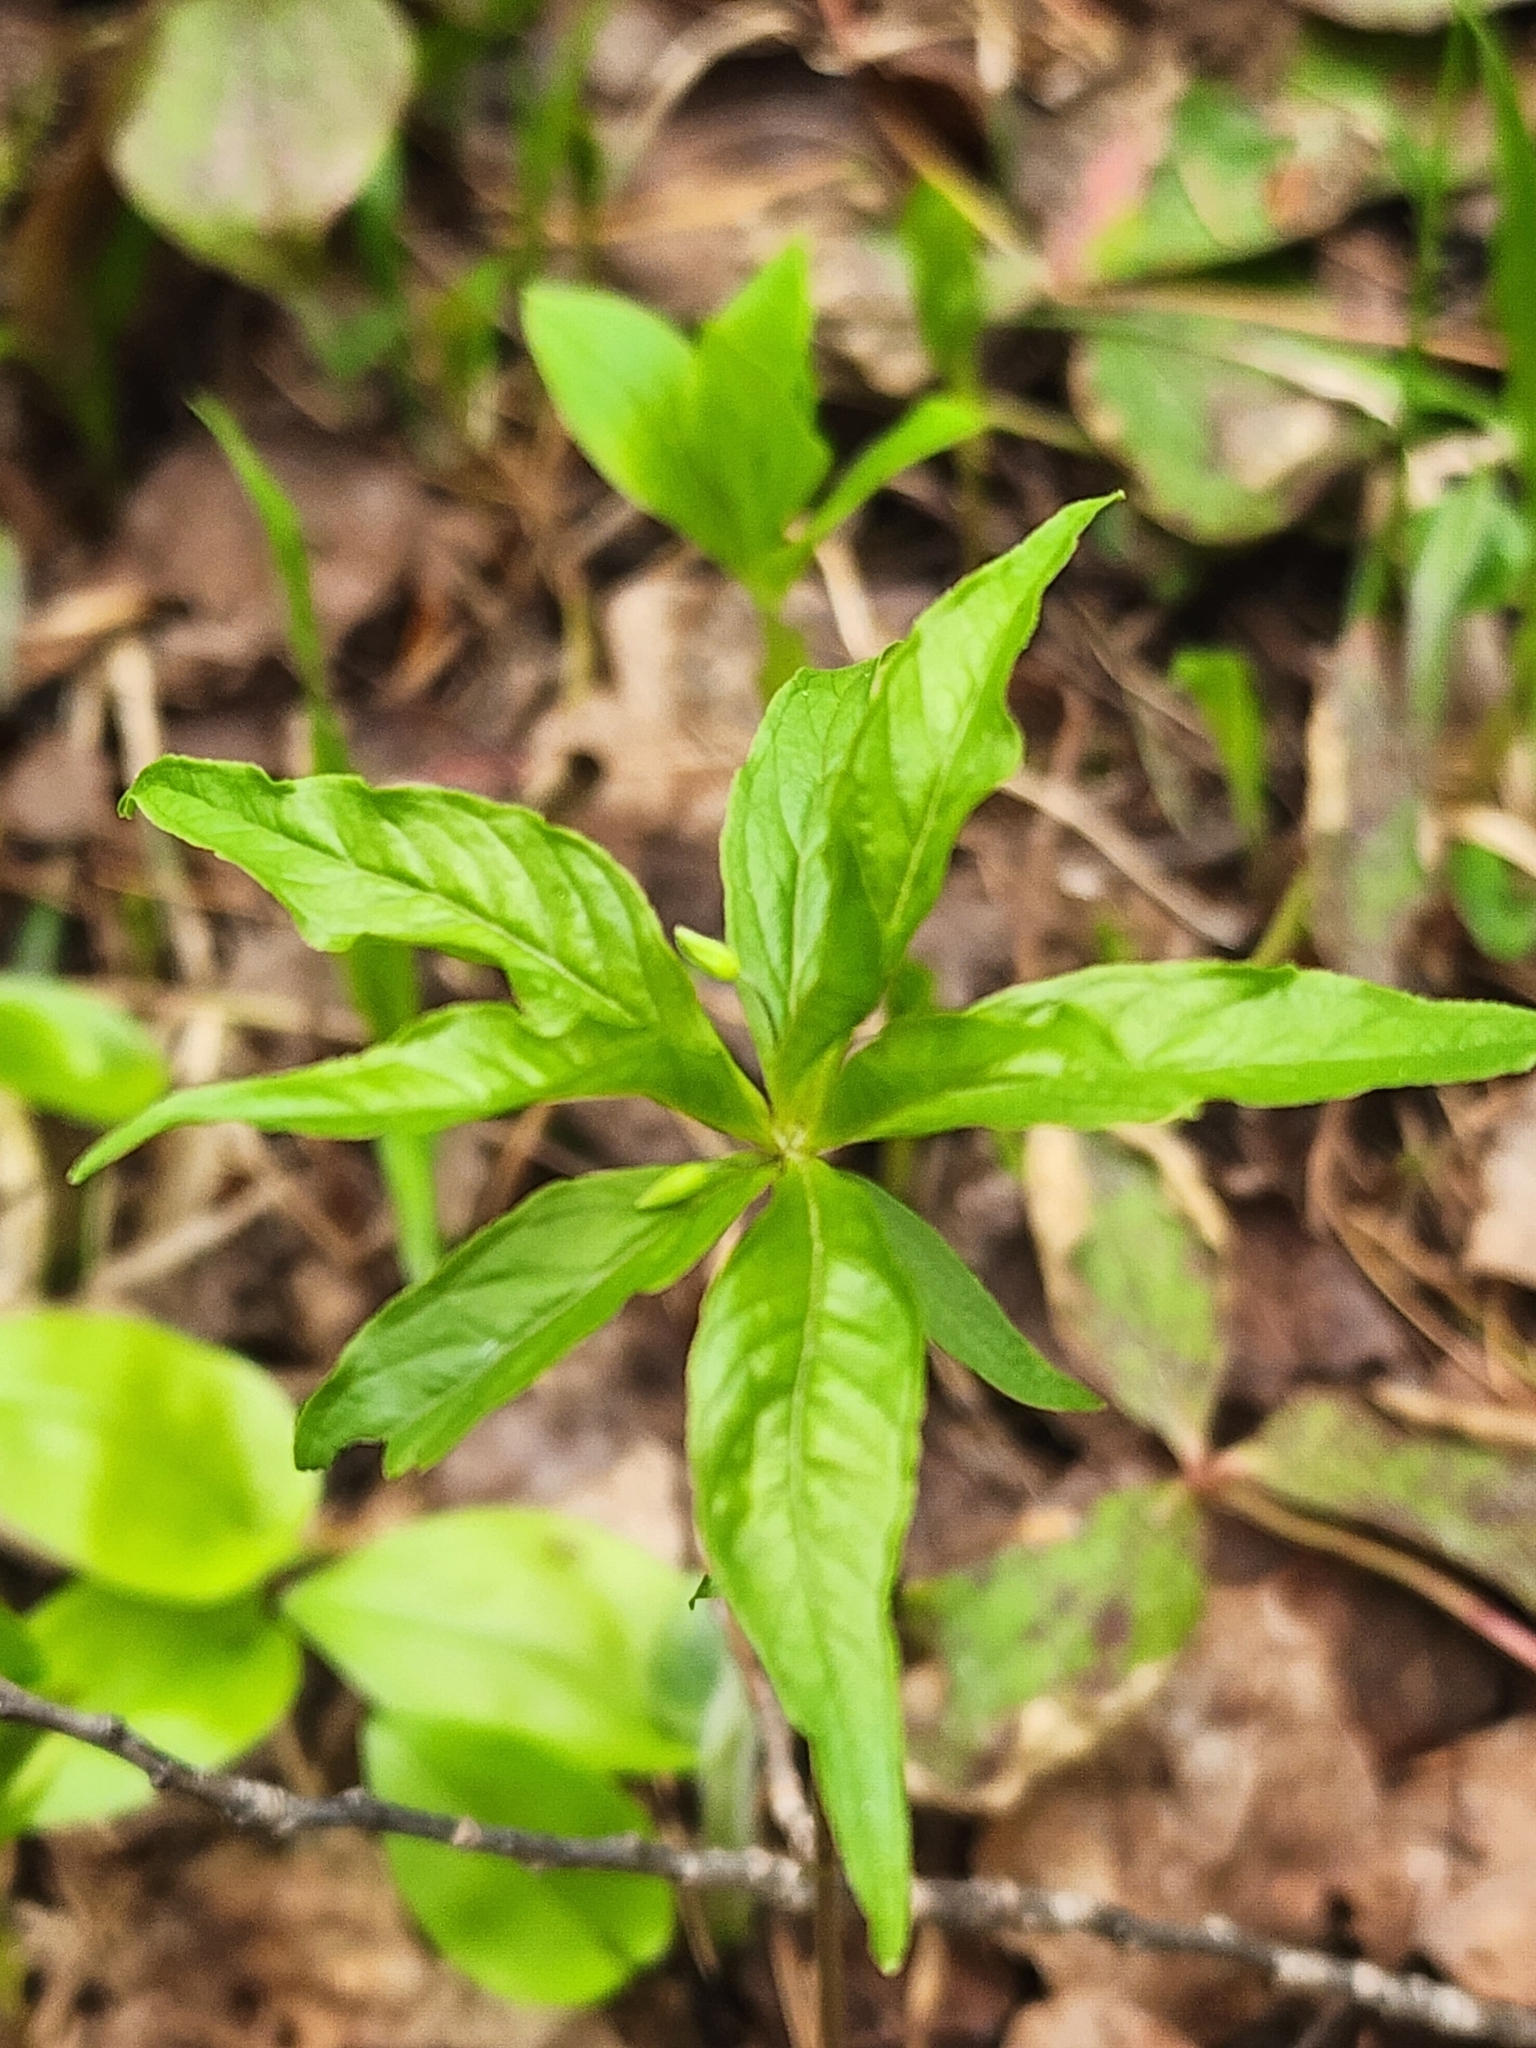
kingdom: Plantae
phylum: Tracheophyta
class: Magnoliopsida
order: Ericales
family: Primulaceae
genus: Lysimachia
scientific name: Lysimachia borealis
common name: American starflower
